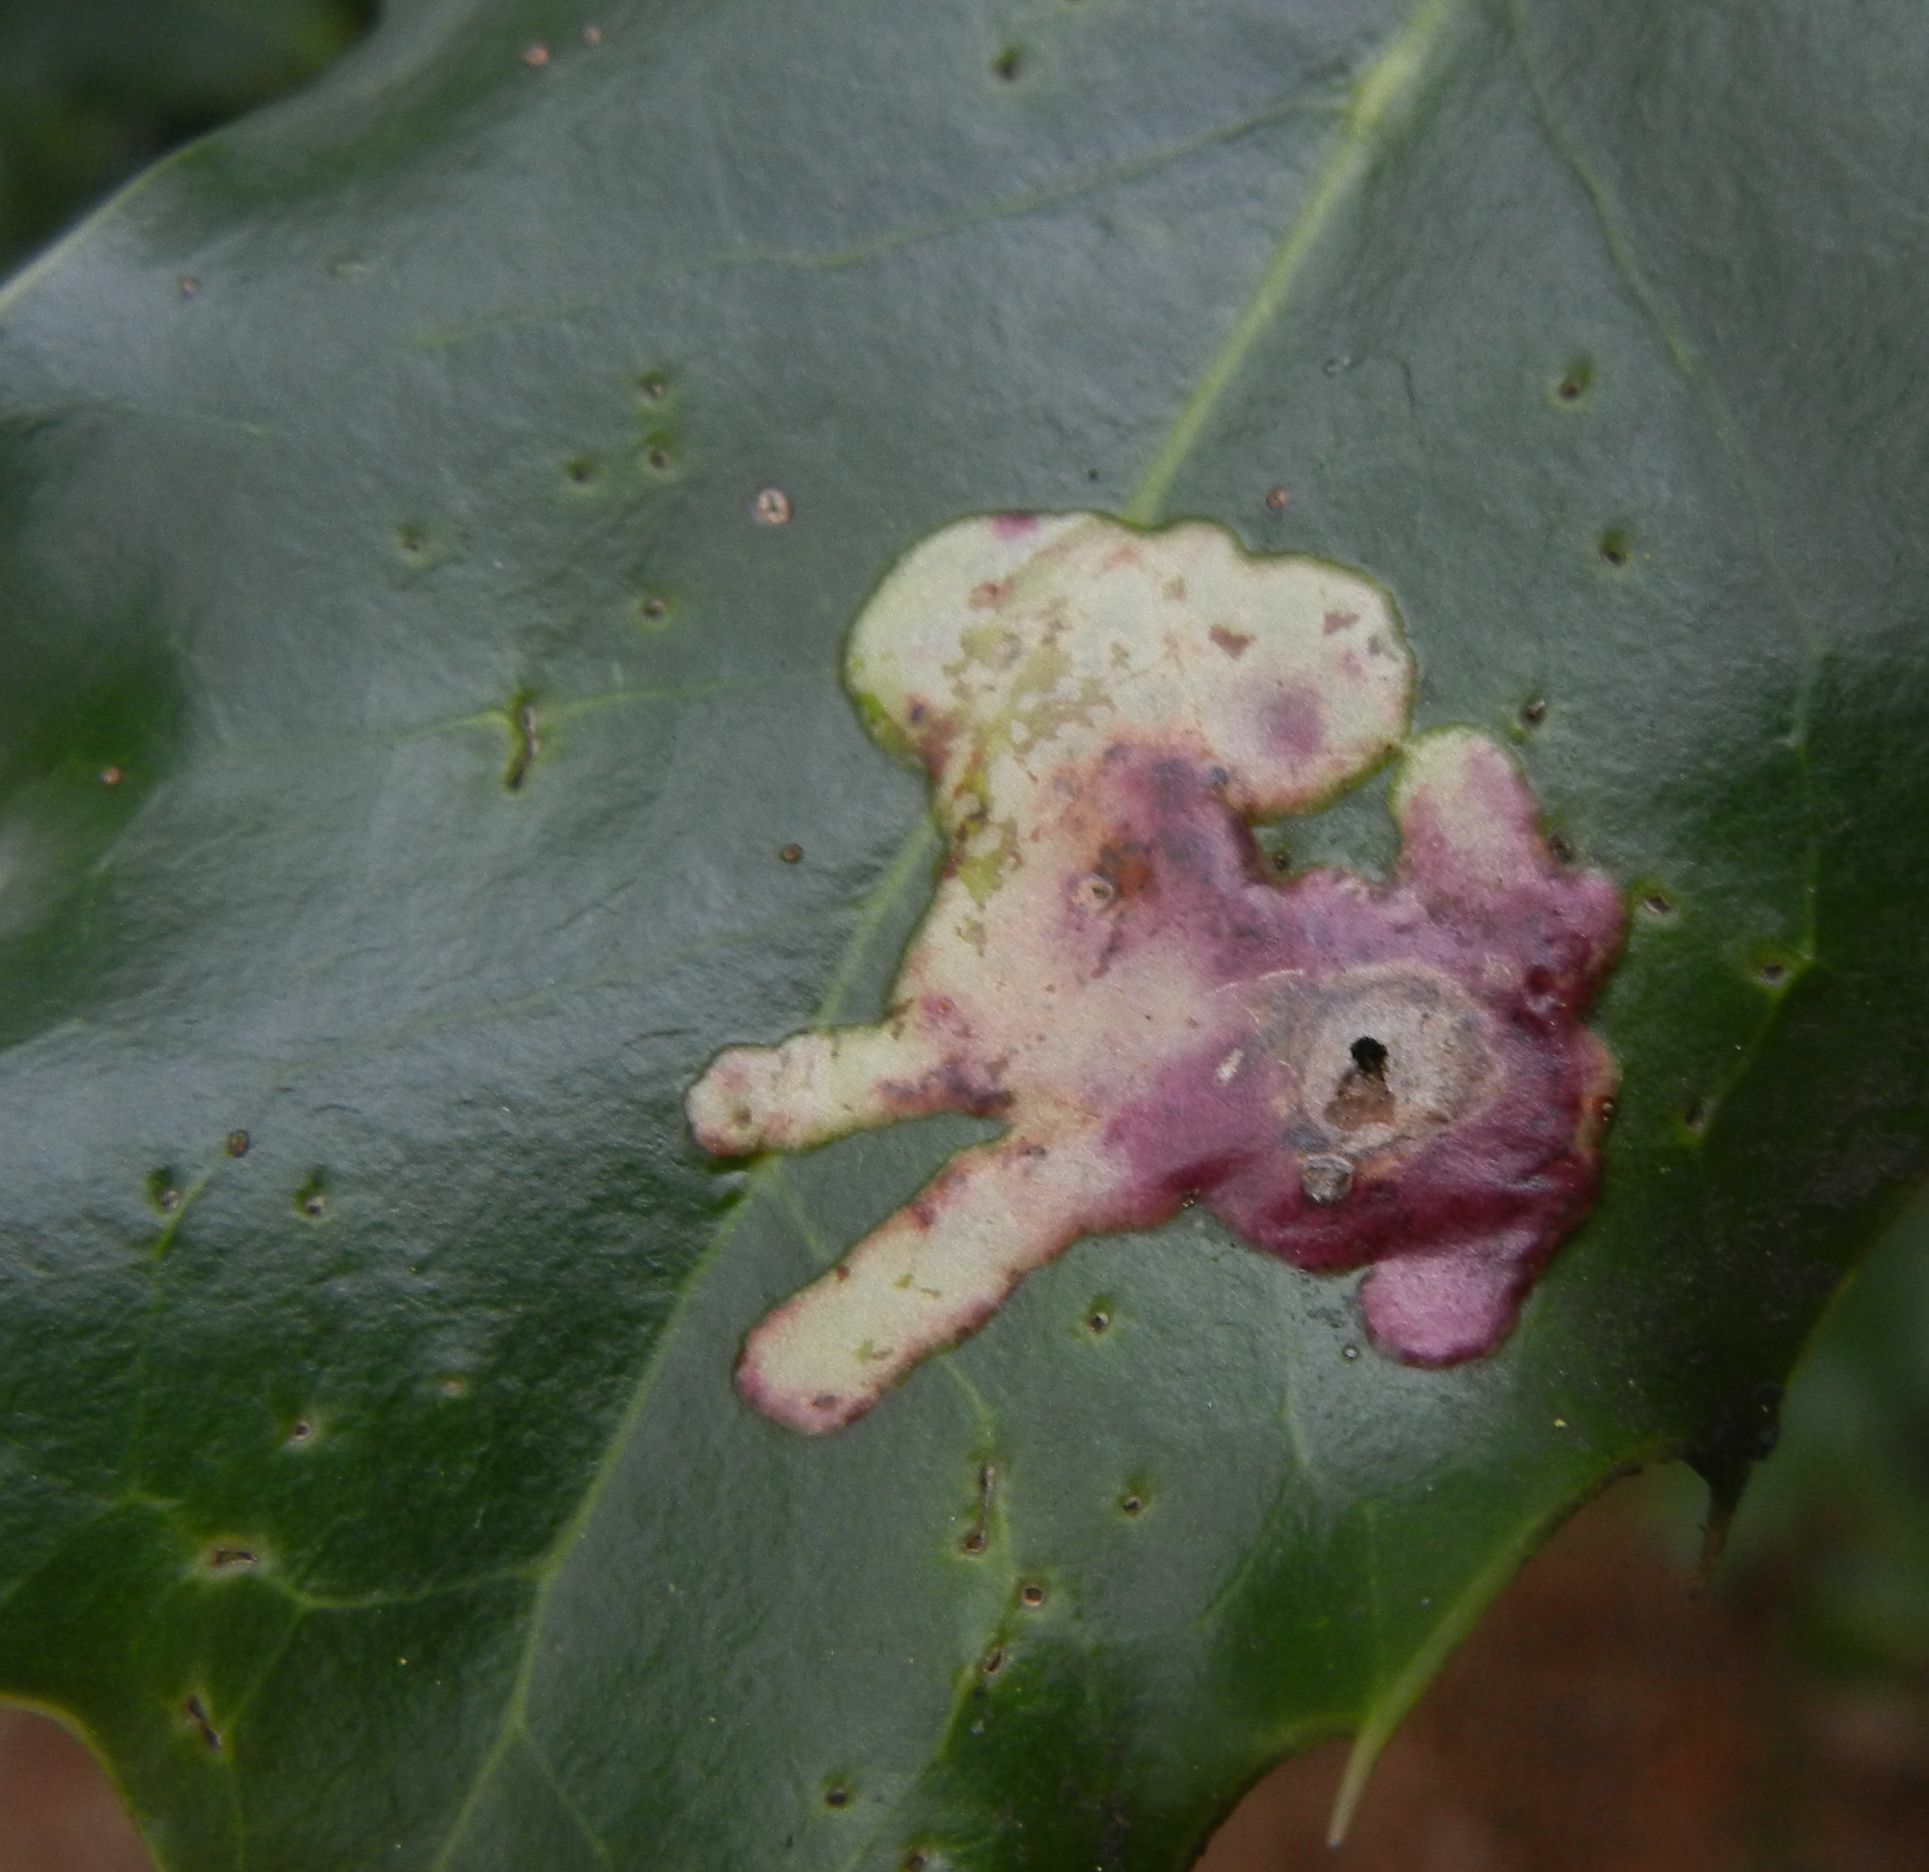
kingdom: Animalia
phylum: Arthropoda
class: Insecta
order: Diptera
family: Agromyzidae
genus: Phytomyza
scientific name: Phytomyza ilicis
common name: Holly leafminer
